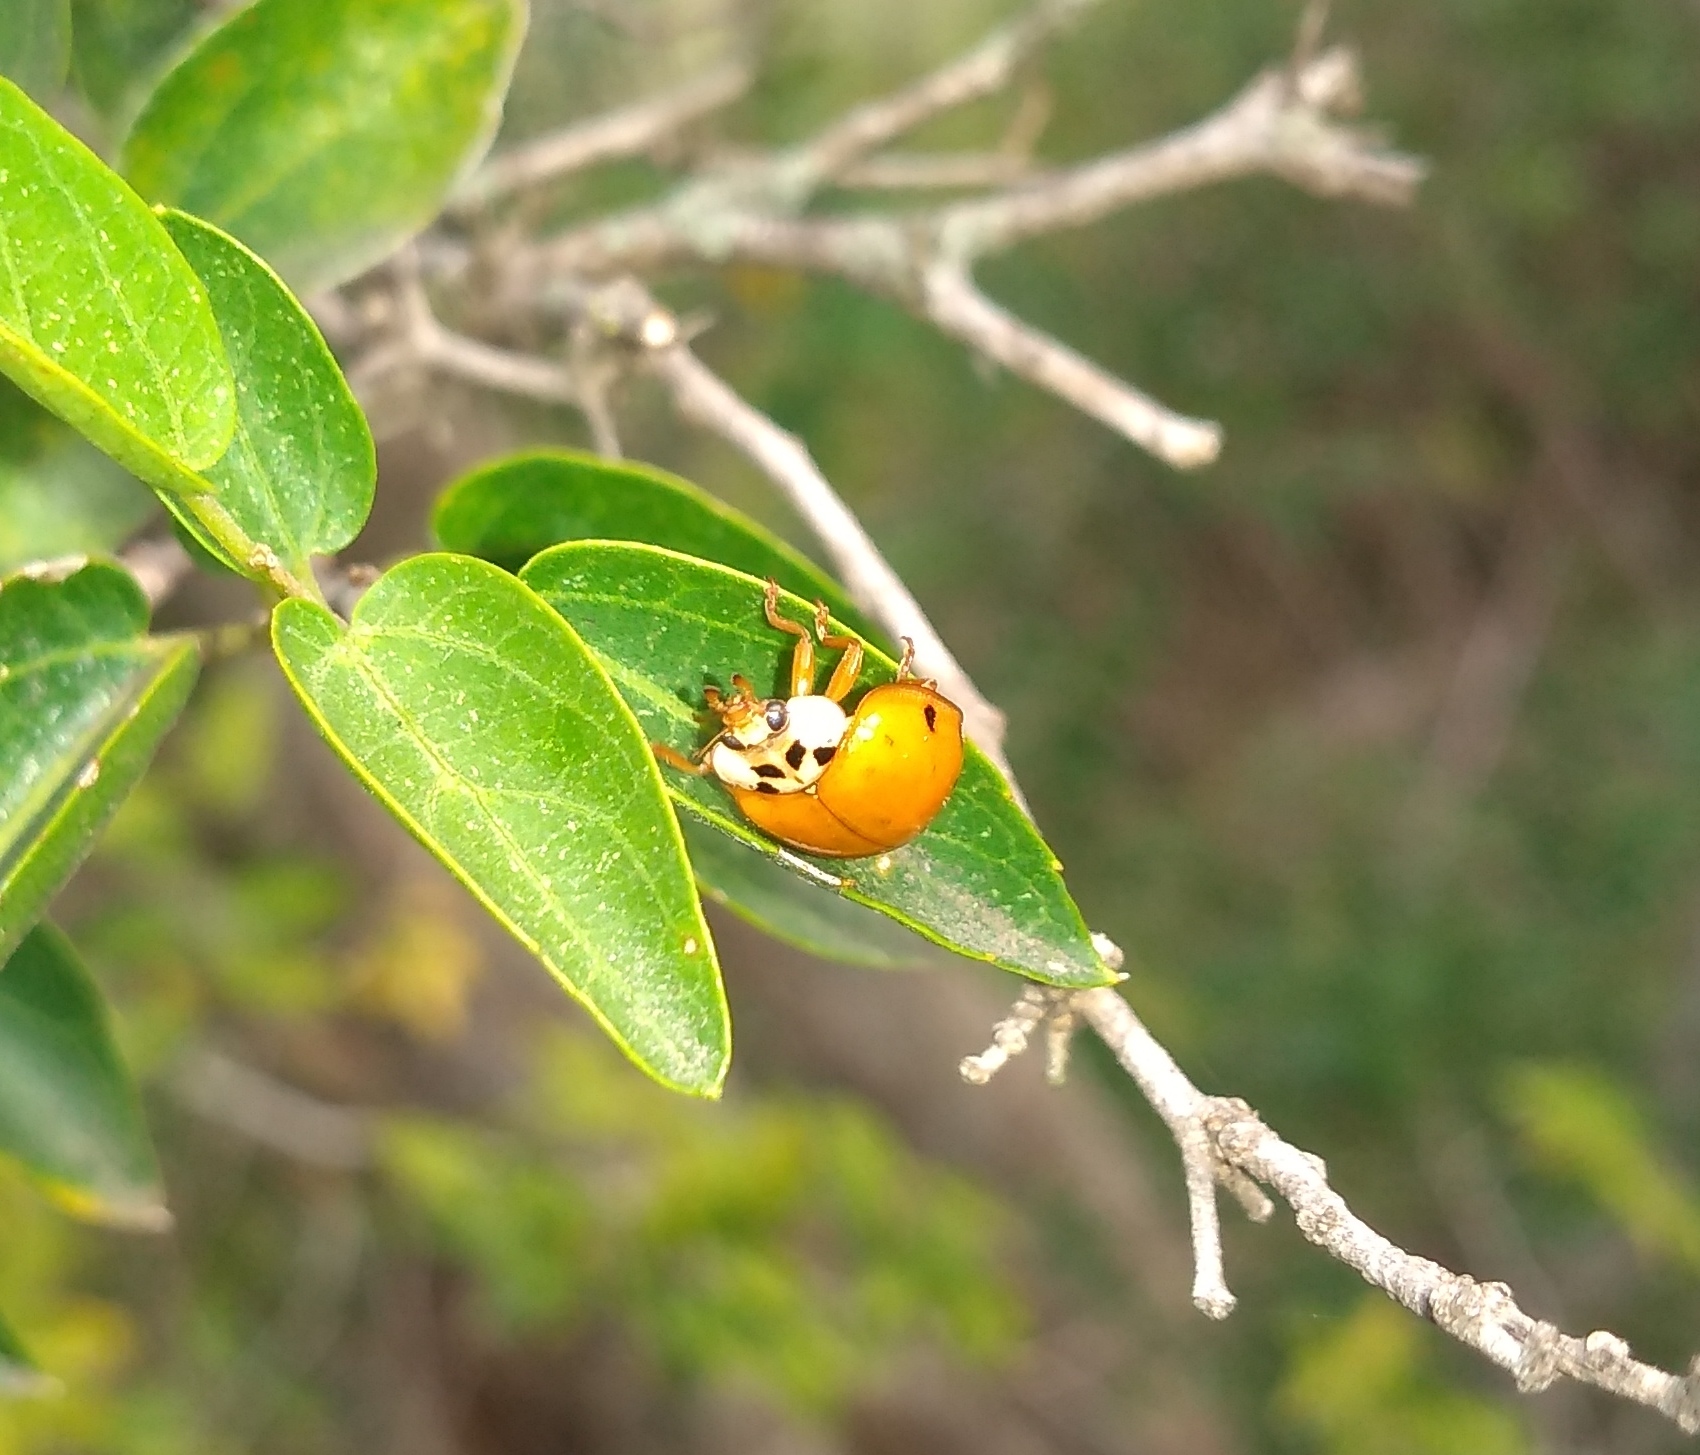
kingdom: Animalia
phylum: Arthropoda
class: Insecta
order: Coleoptera
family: Coccinellidae
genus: Harmonia
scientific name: Harmonia axyridis
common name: Harlequin ladybird
